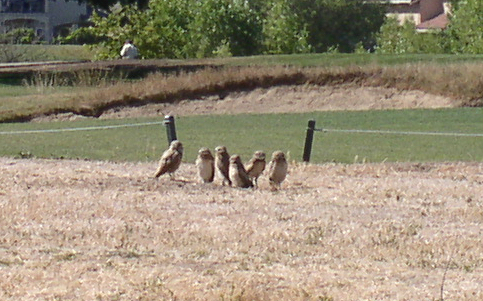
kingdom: Animalia
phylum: Chordata
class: Aves
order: Strigiformes
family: Strigidae
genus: Athene
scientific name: Athene cunicularia
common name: Burrowing owl
